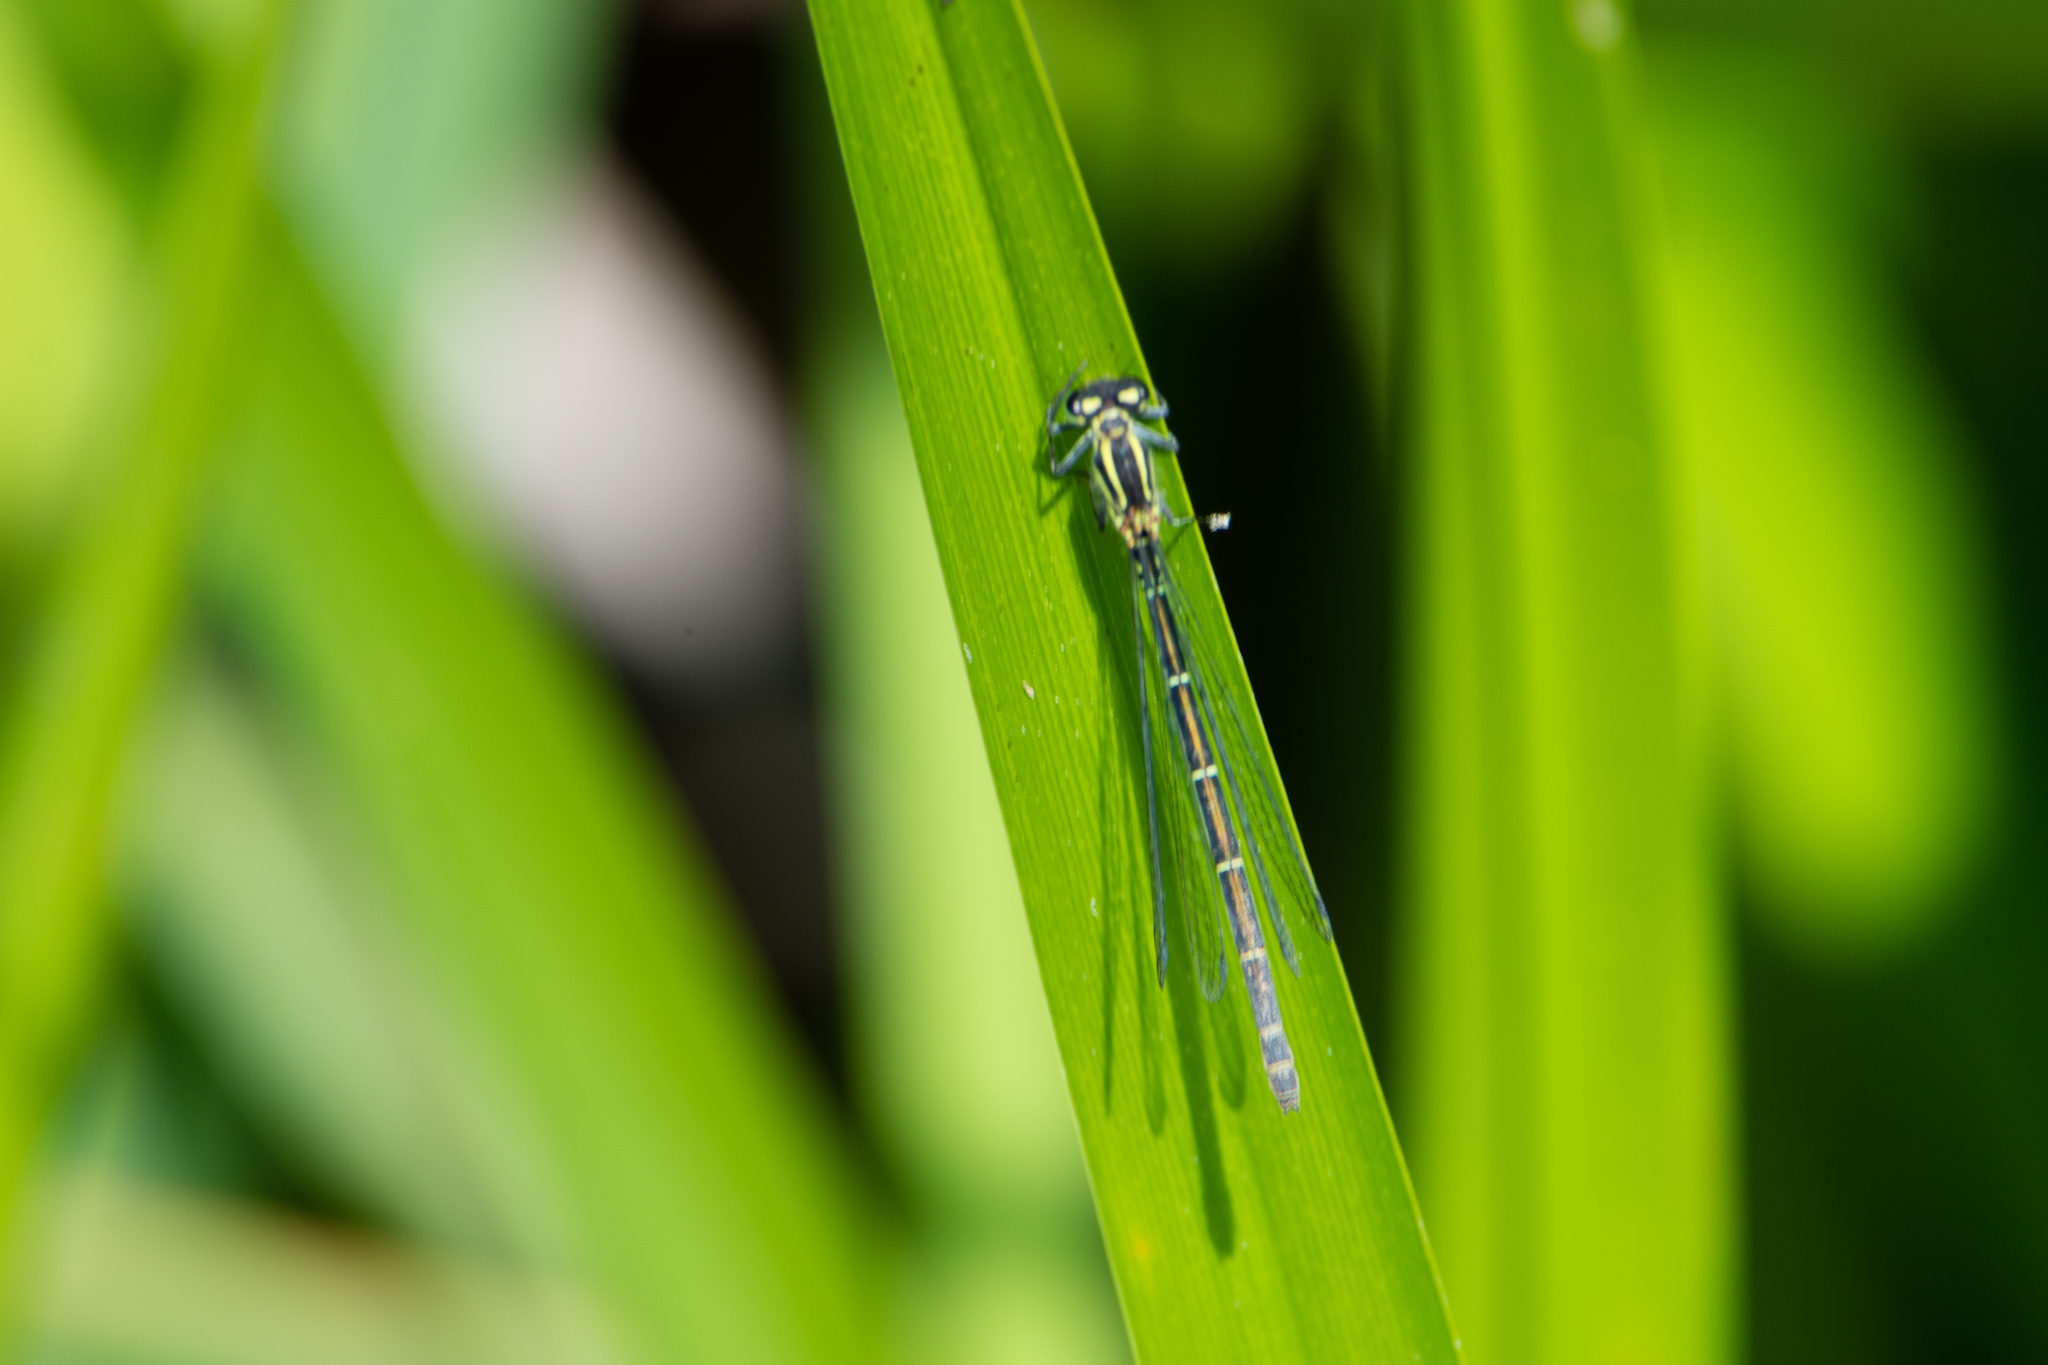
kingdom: Animalia
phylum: Arthropoda
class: Insecta
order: Odonata
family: Coenagrionidae
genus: Coenagrion
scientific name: Coenagrion puella
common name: Azure damselfly
